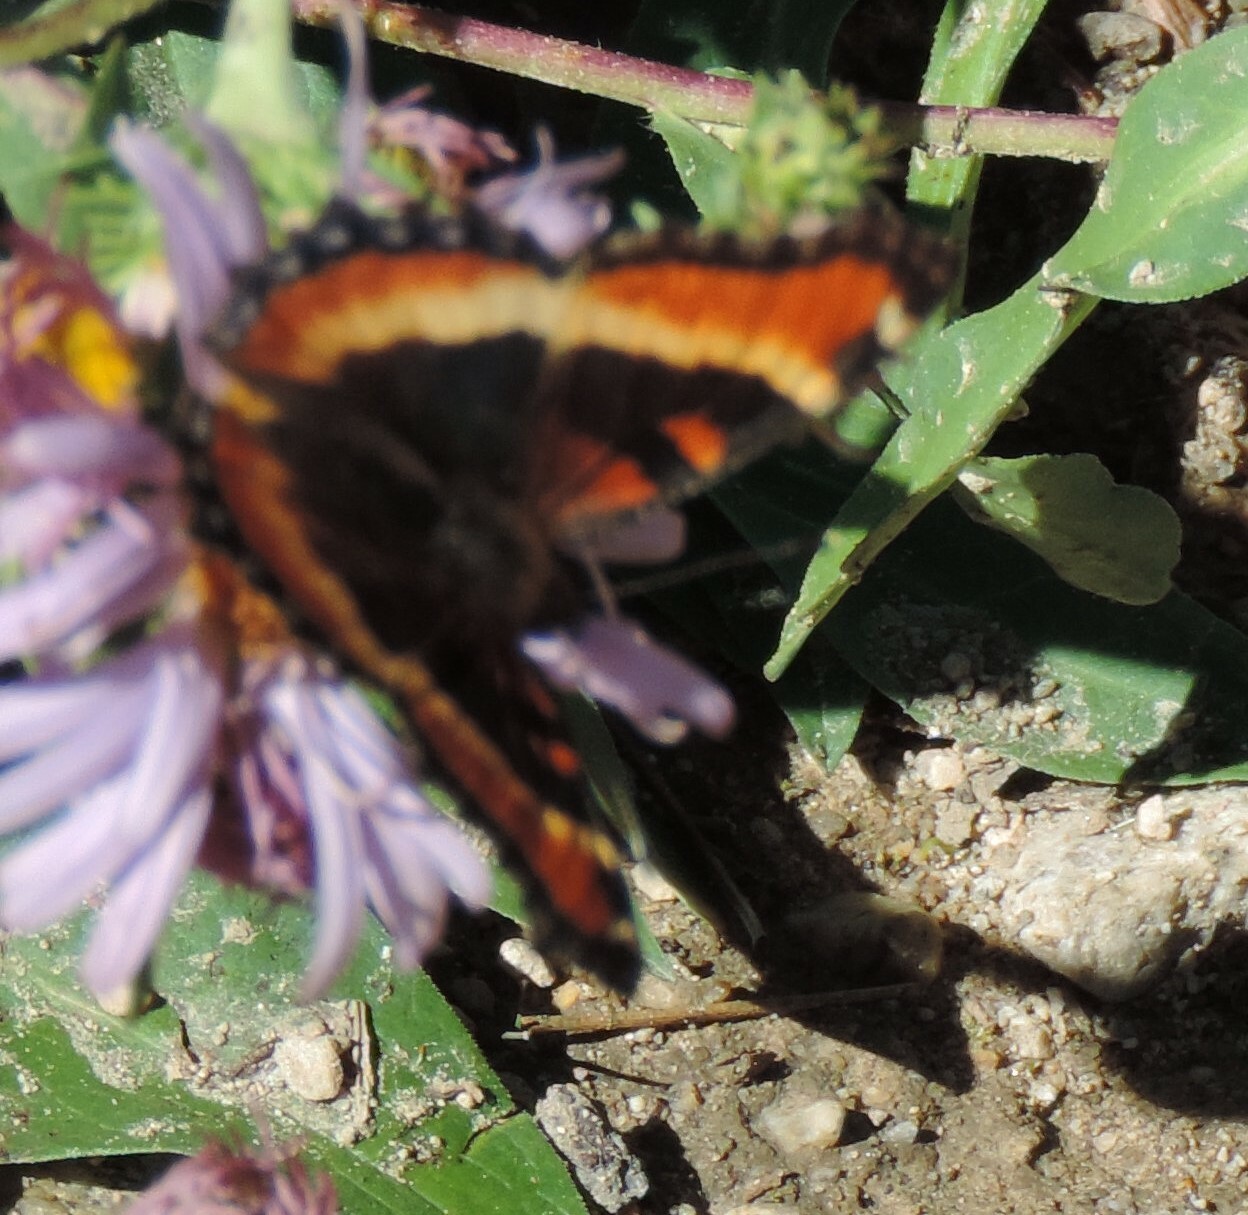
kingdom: Animalia
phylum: Arthropoda
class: Insecta
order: Lepidoptera
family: Nymphalidae
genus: Aglais
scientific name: Aglais milberti
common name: Milbert's tortoiseshell
